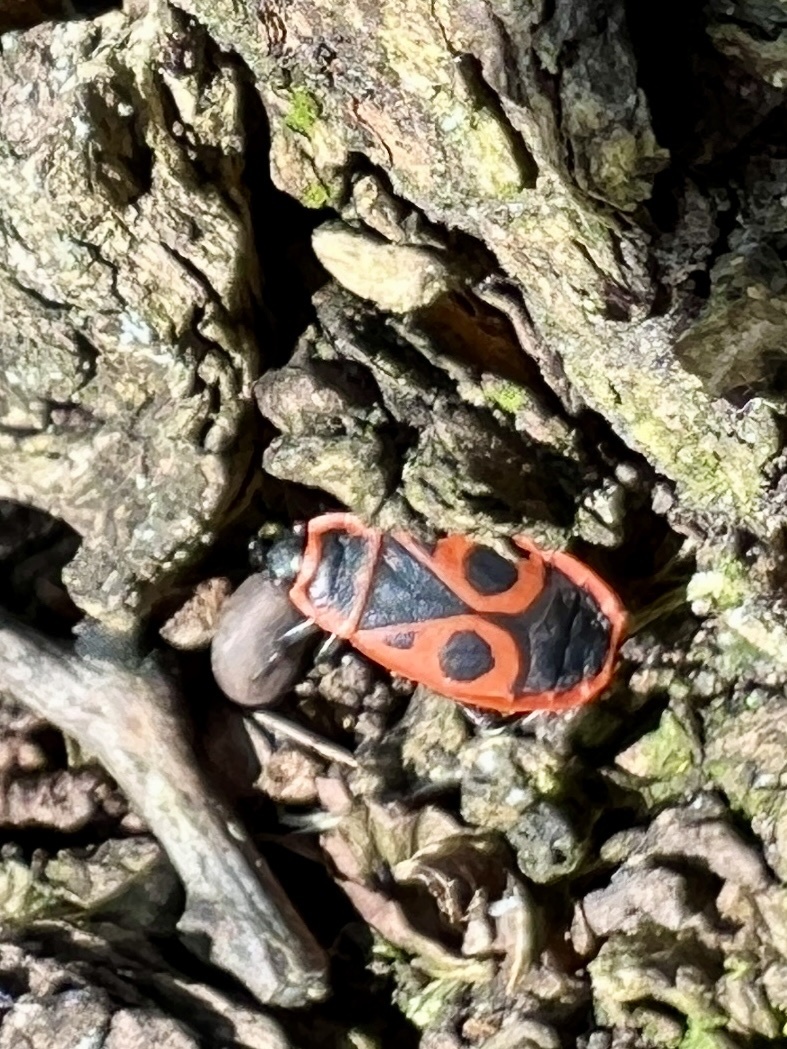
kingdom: Animalia
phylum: Arthropoda
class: Insecta
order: Hemiptera
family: Pyrrhocoridae
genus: Pyrrhocoris
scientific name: Pyrrhocoris apterus
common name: Firebug
